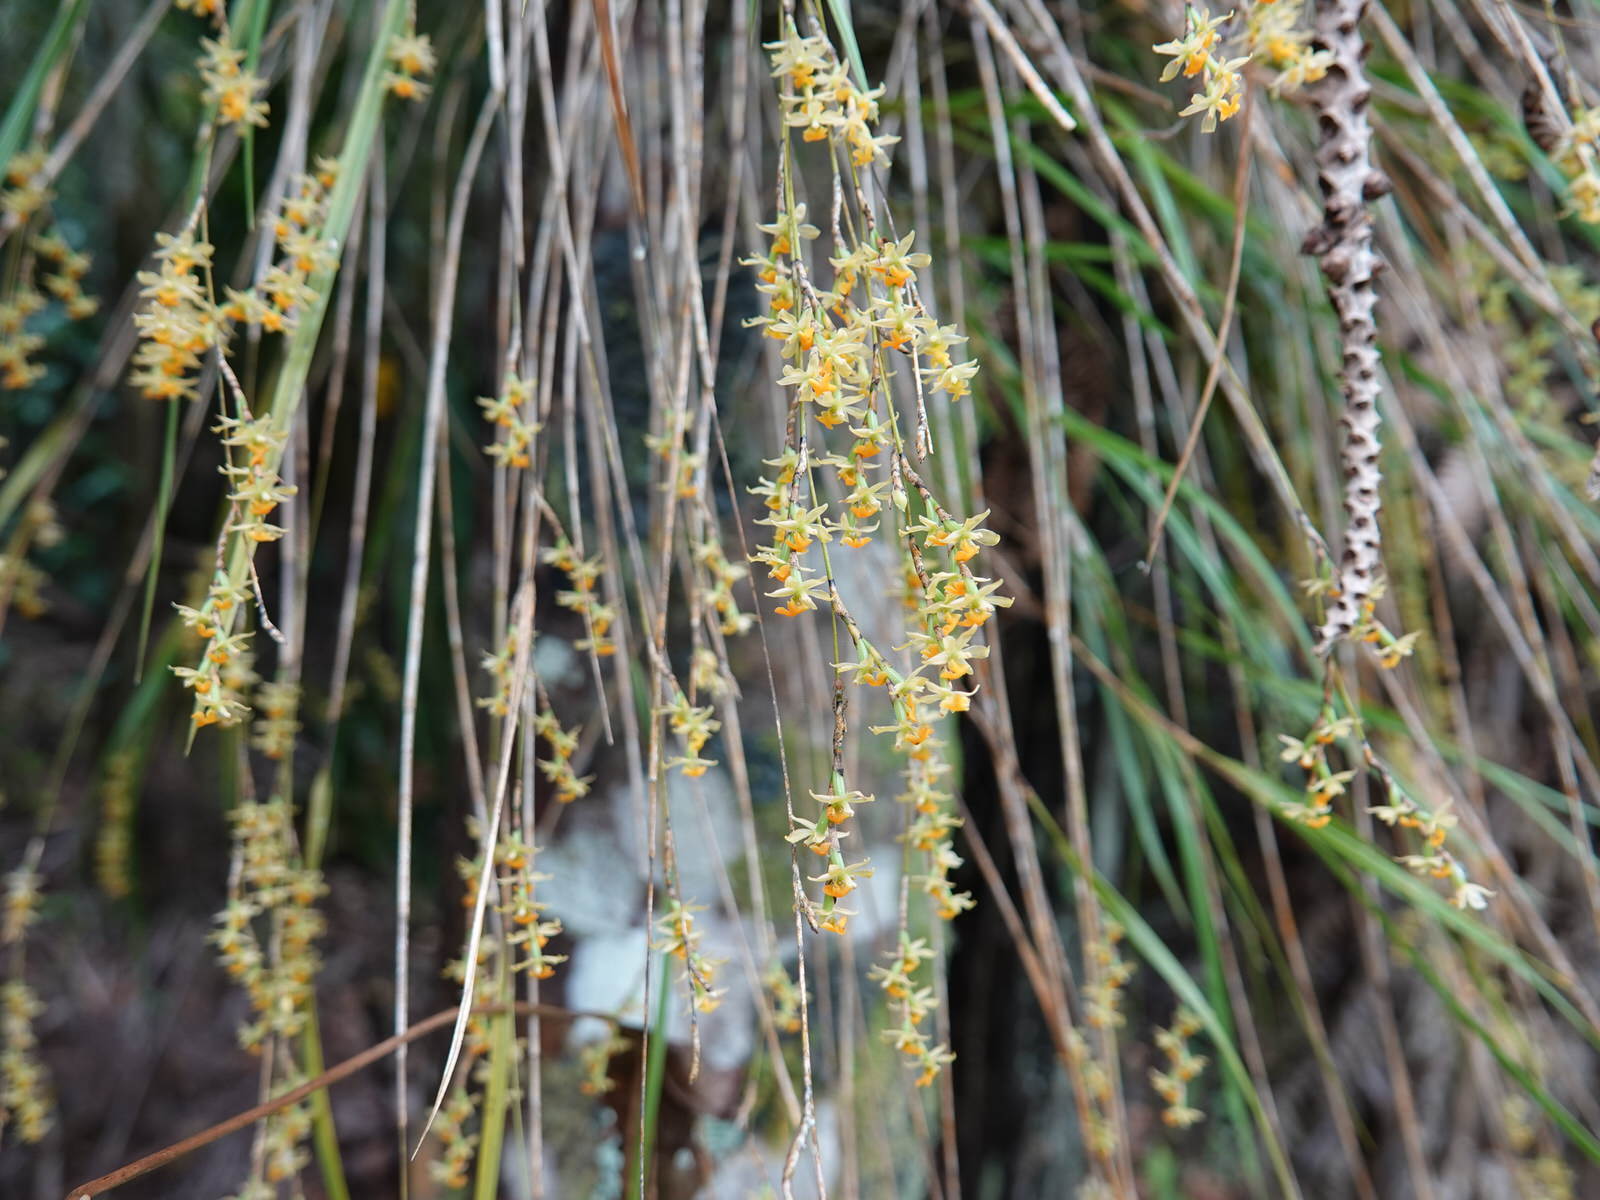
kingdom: Plantae
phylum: Tracheophyta
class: Liliopsida
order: Asparagales
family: Orchidaceae
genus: Earina
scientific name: Earina mucronata
